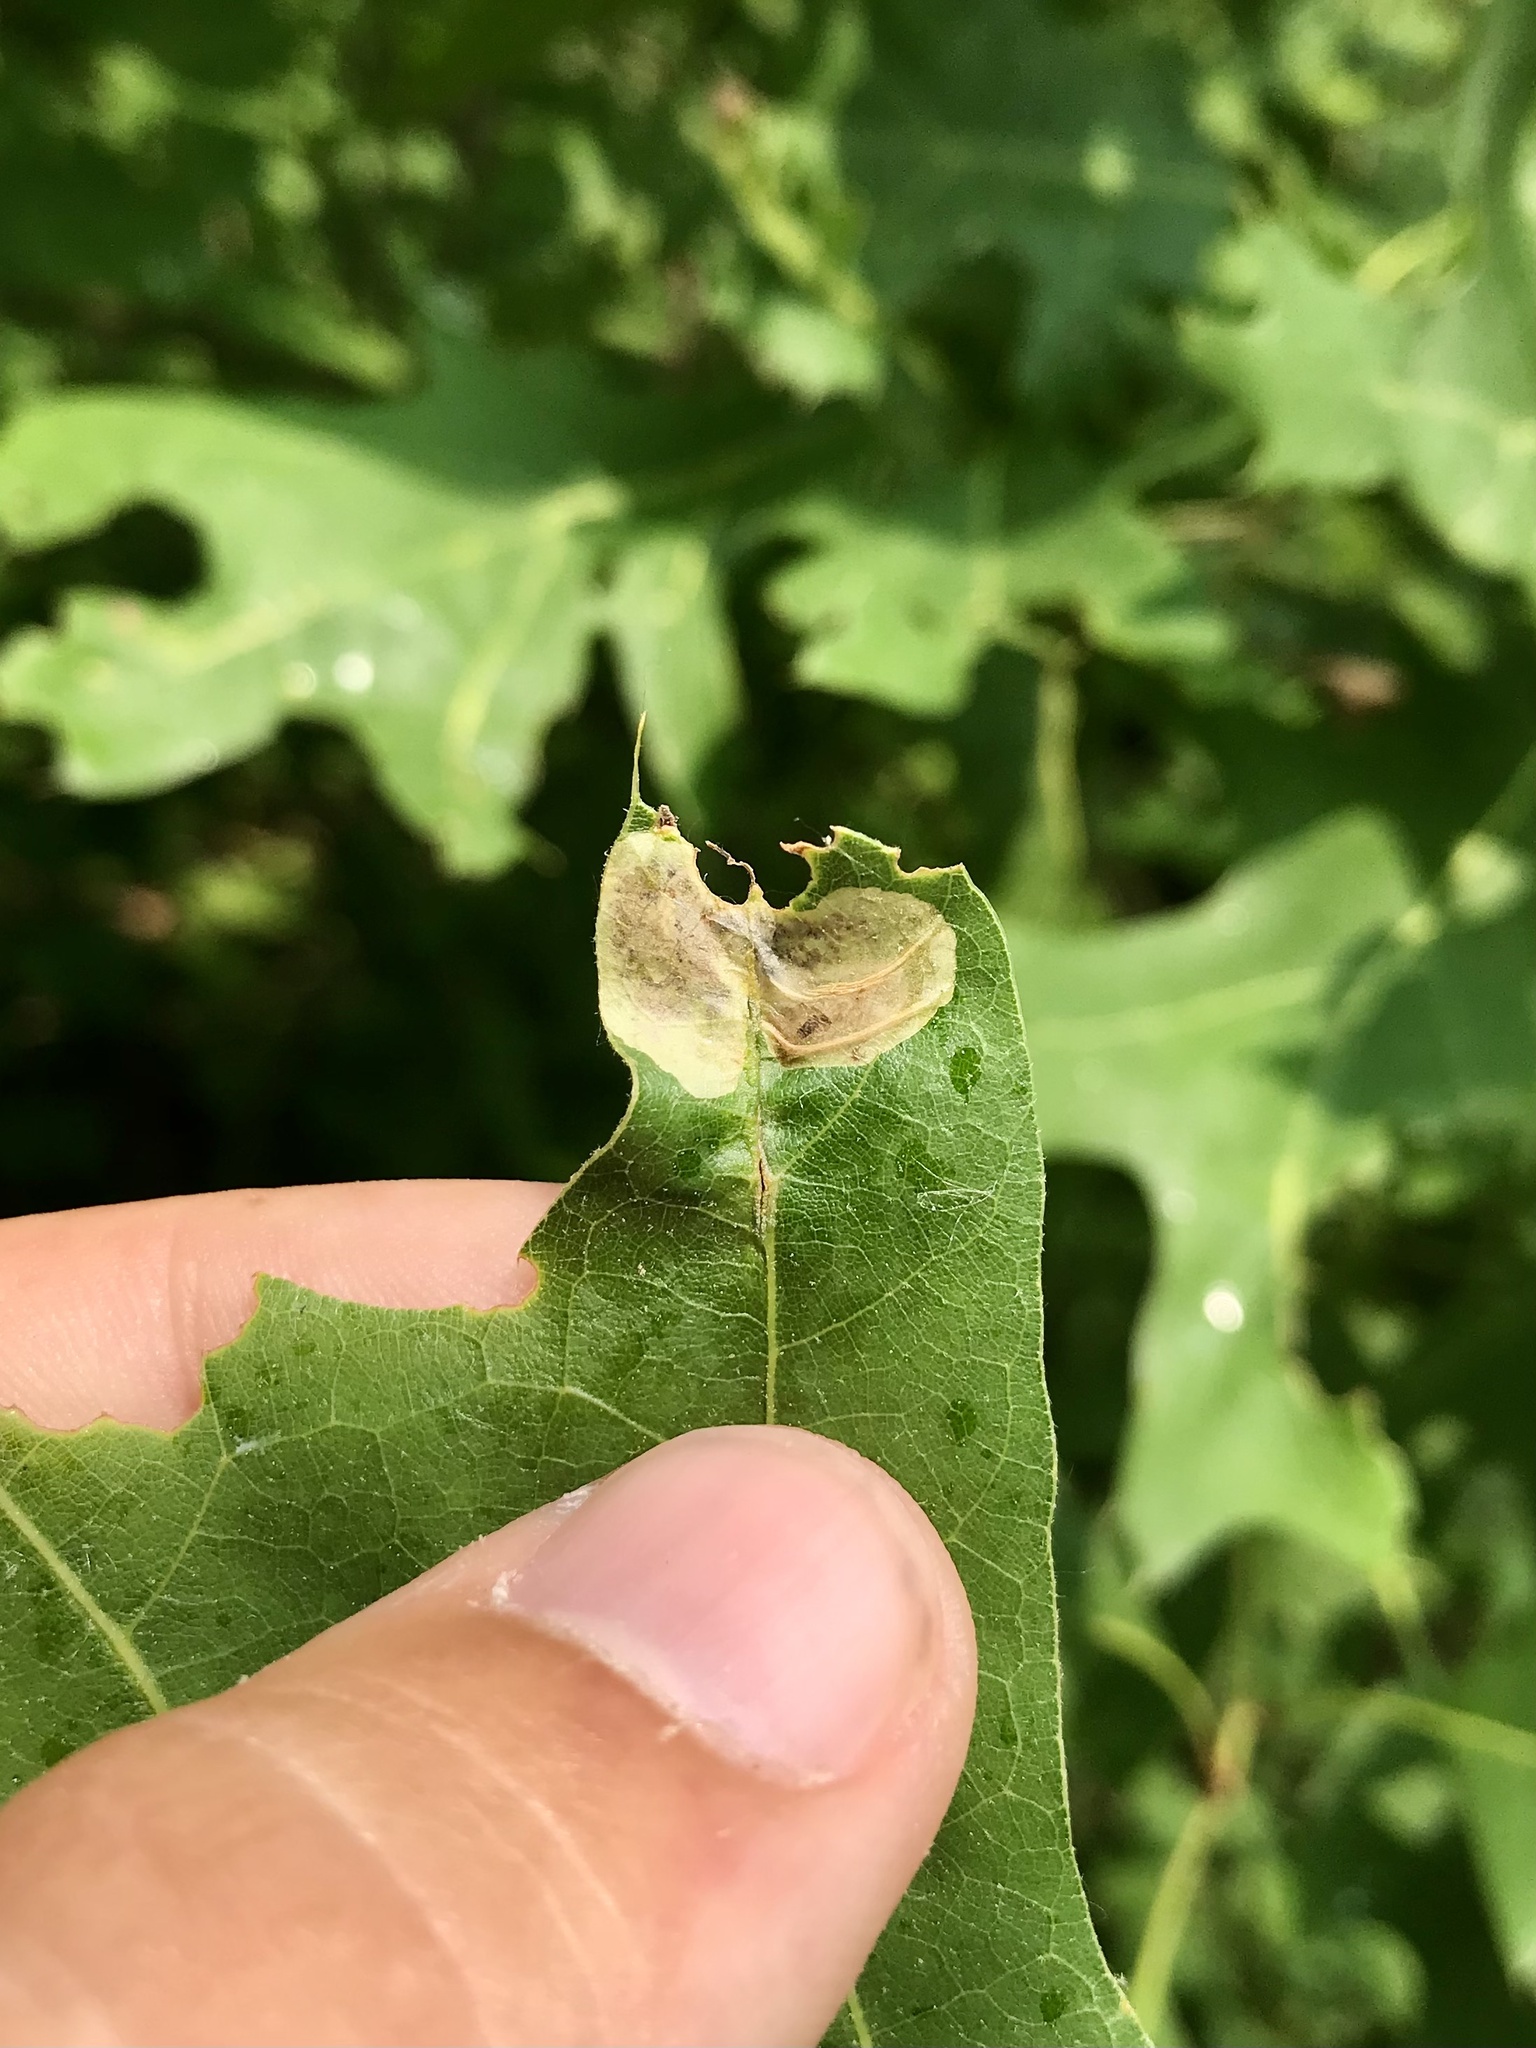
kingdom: Animalia
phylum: Arthropoda
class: Insecta
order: Lepidoptera
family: Gracillariidae
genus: Cameraria
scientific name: Cameraria quercivorella
